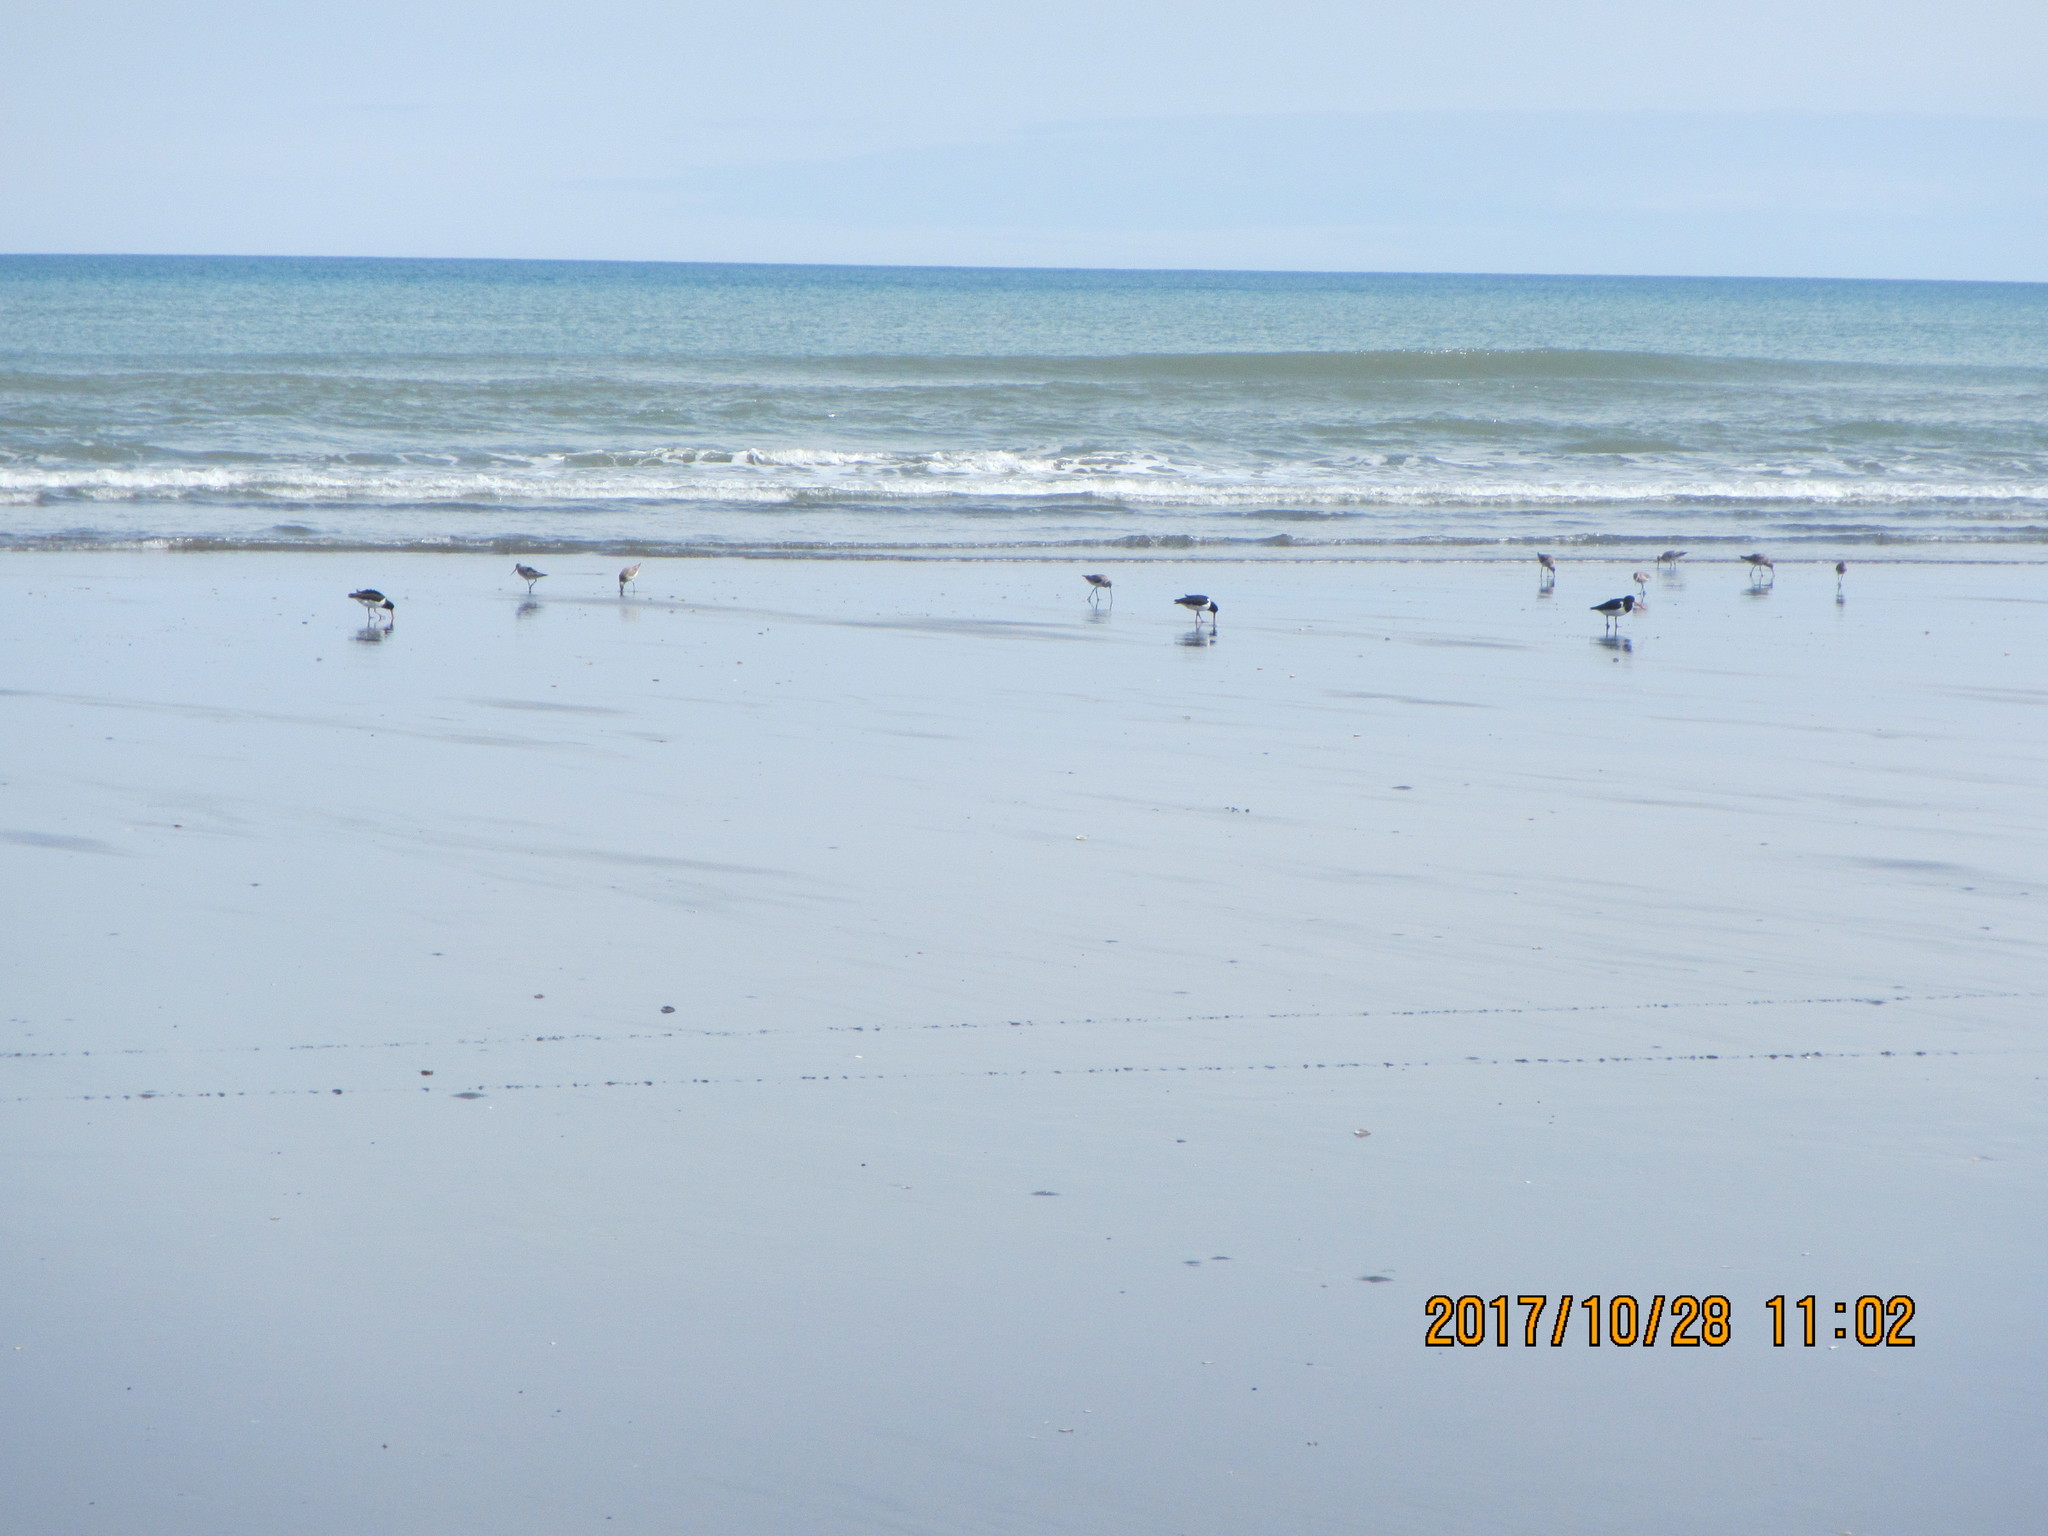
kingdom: Animalia
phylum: Chordata
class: Aves
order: Charadriiformes
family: Haematopodidae
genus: Haematopus
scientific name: Haematopus finschi
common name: South island oystercatcher
